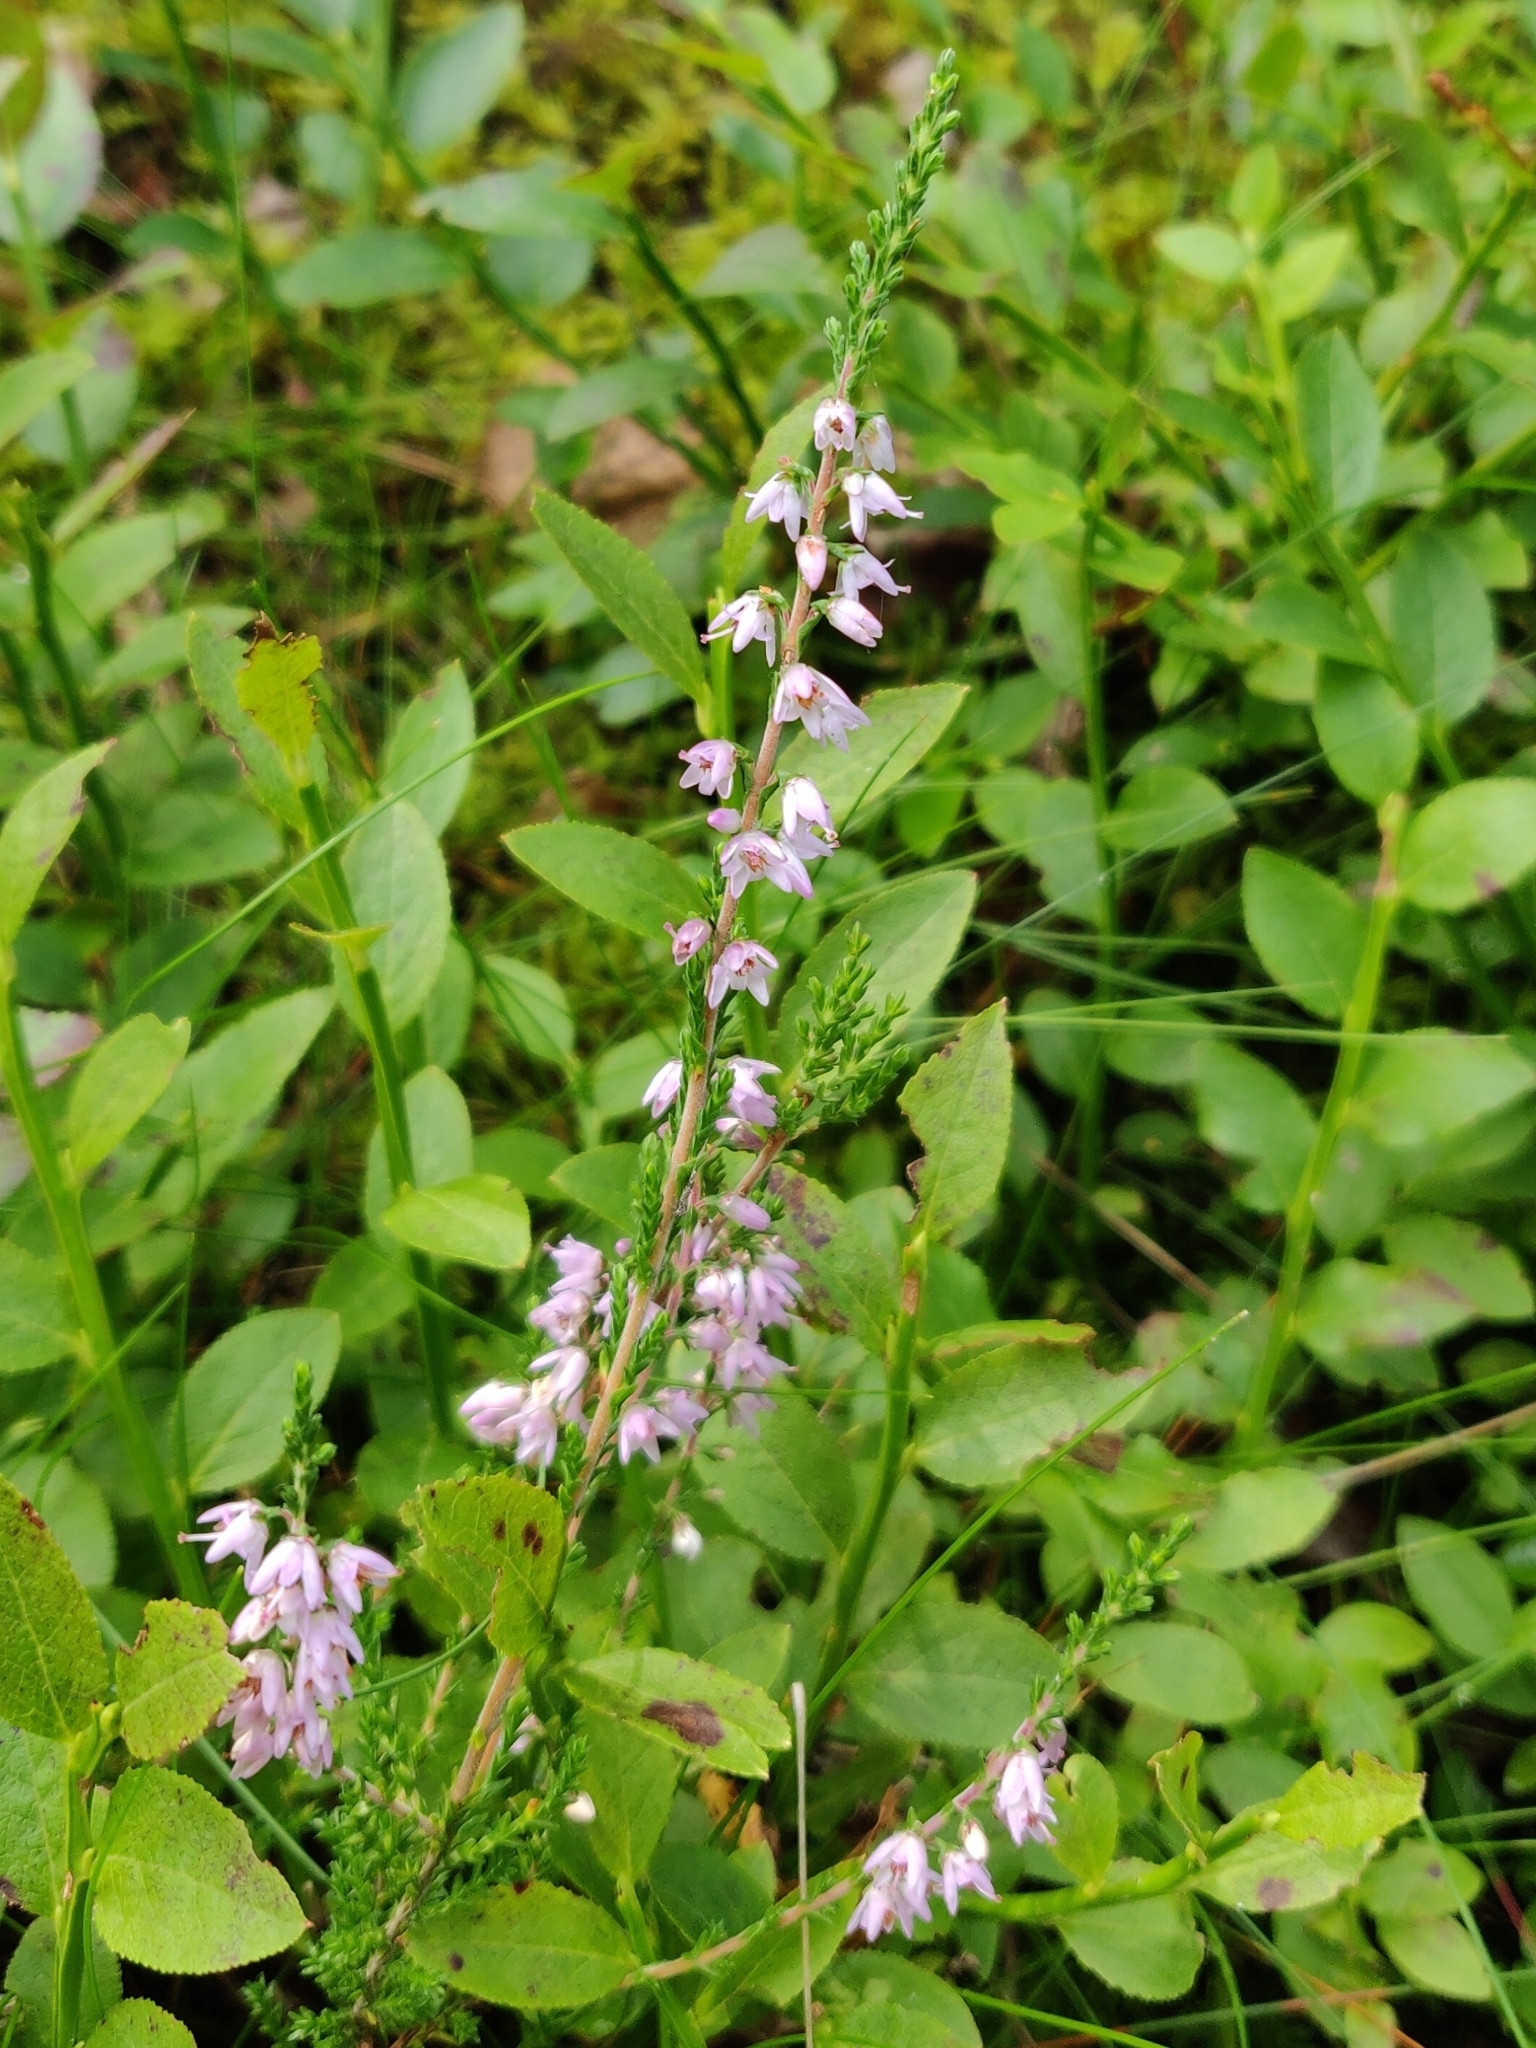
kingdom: Plantae
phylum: Tracheophyta
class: Magnoliopsida
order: Ericales
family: Ericaceae
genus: Calluna
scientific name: Calluna vulgaris
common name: Heather
